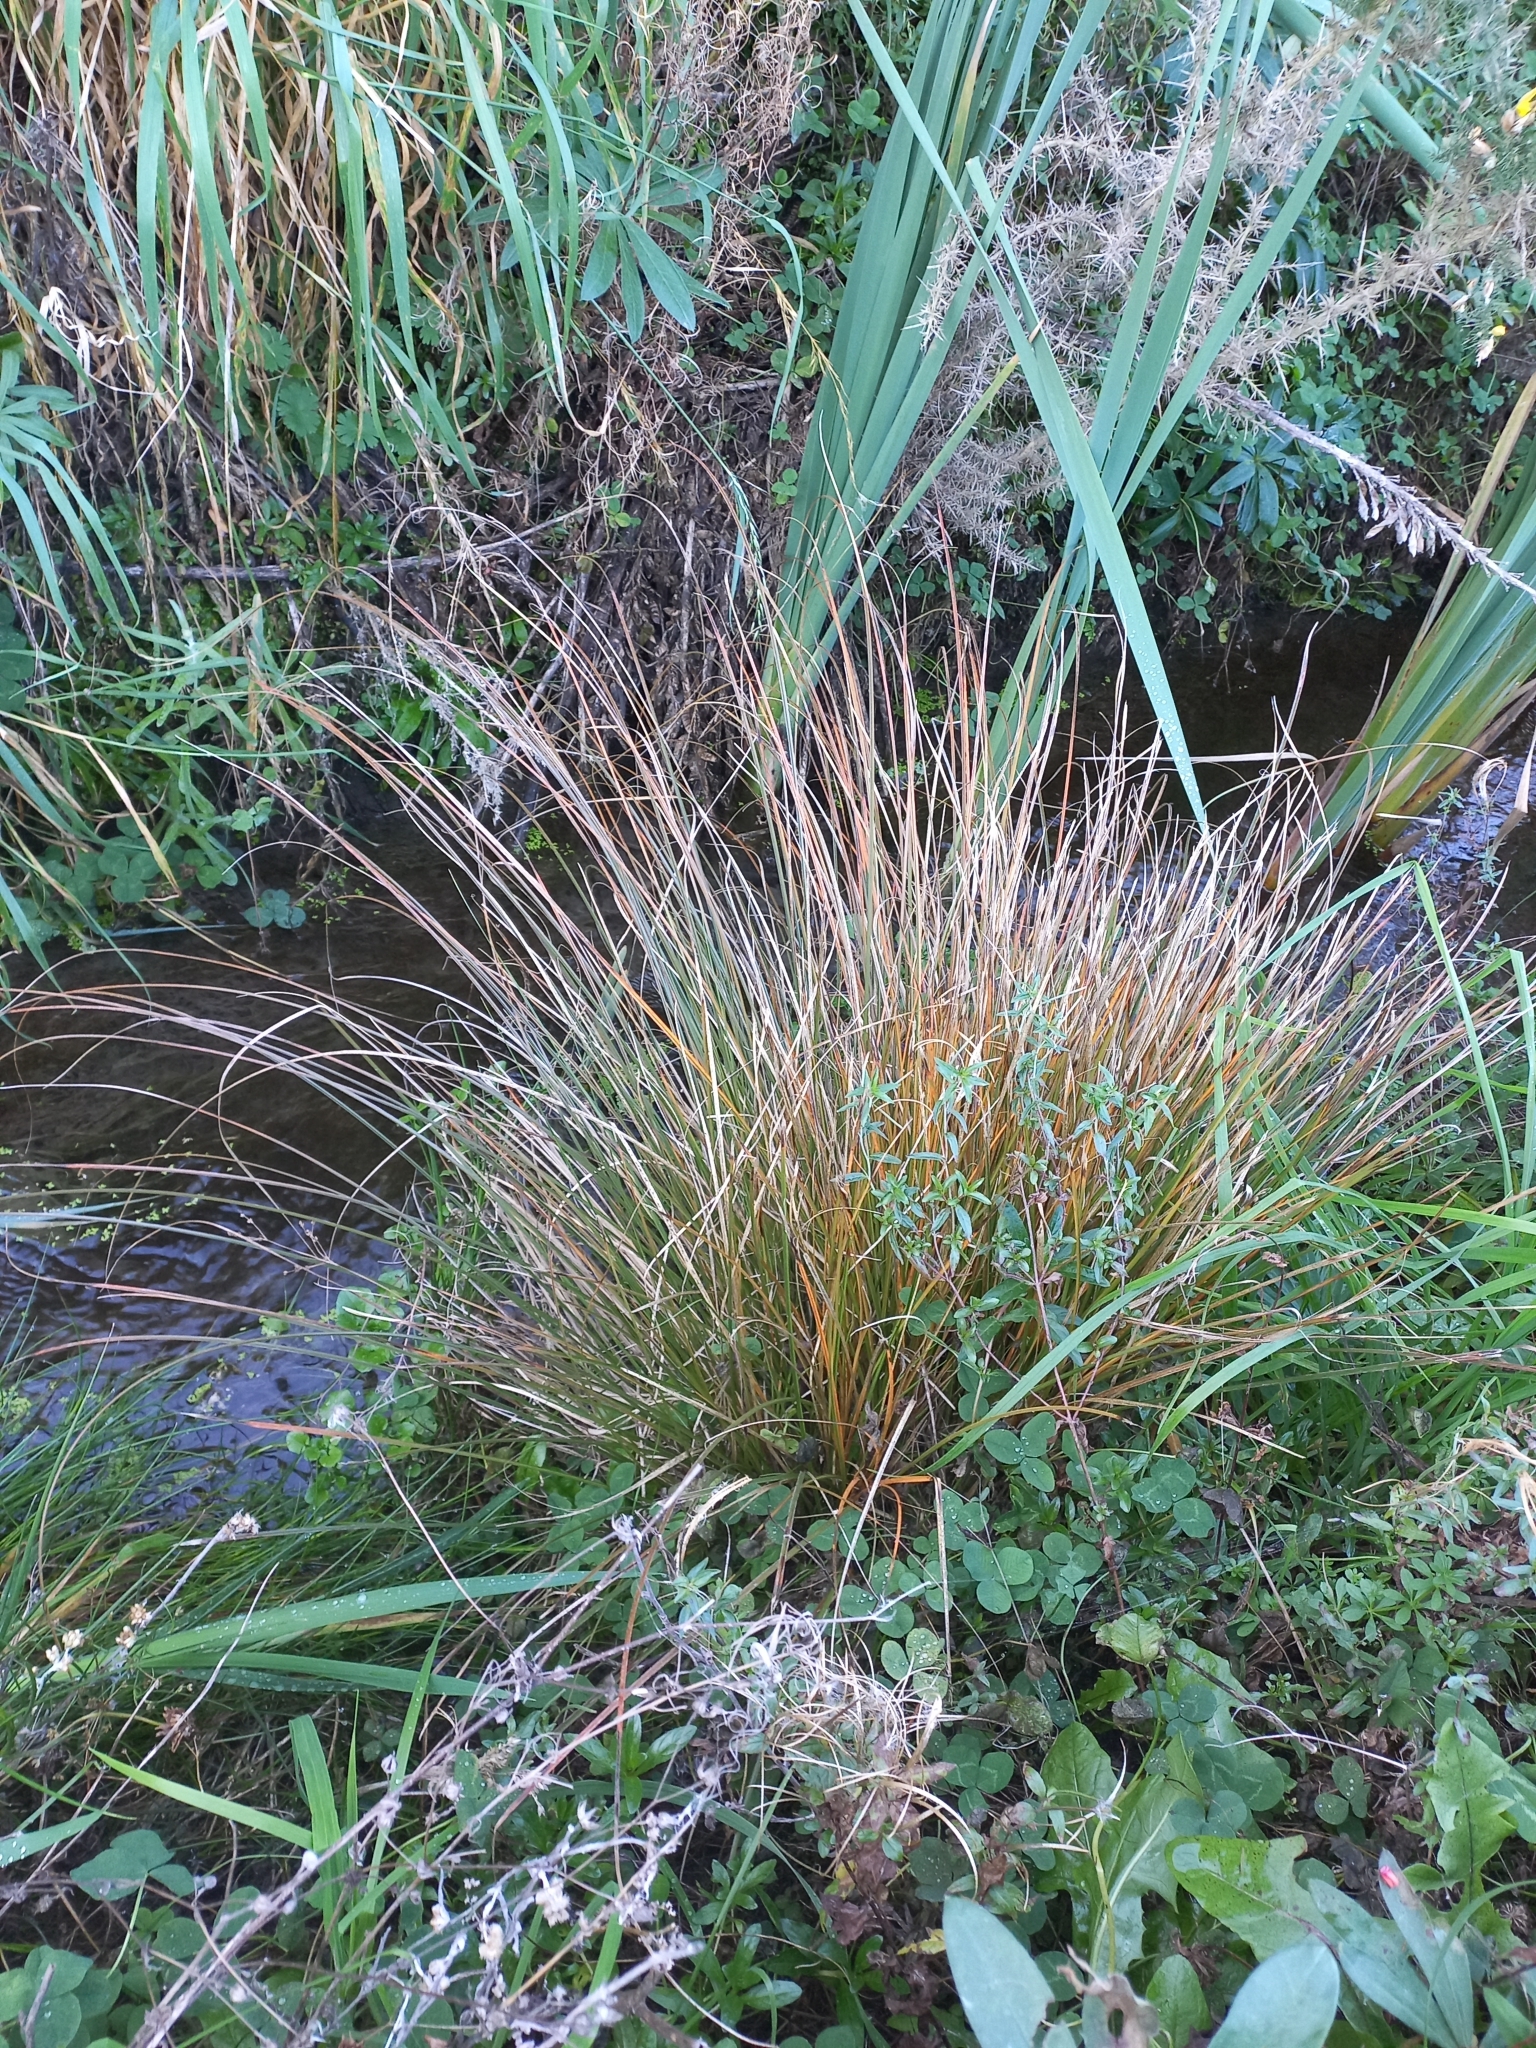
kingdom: Plantae
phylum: Tracheophyta
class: Liliopsida
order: Poales
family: Cyperaceae
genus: Carex
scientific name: Carex secta
